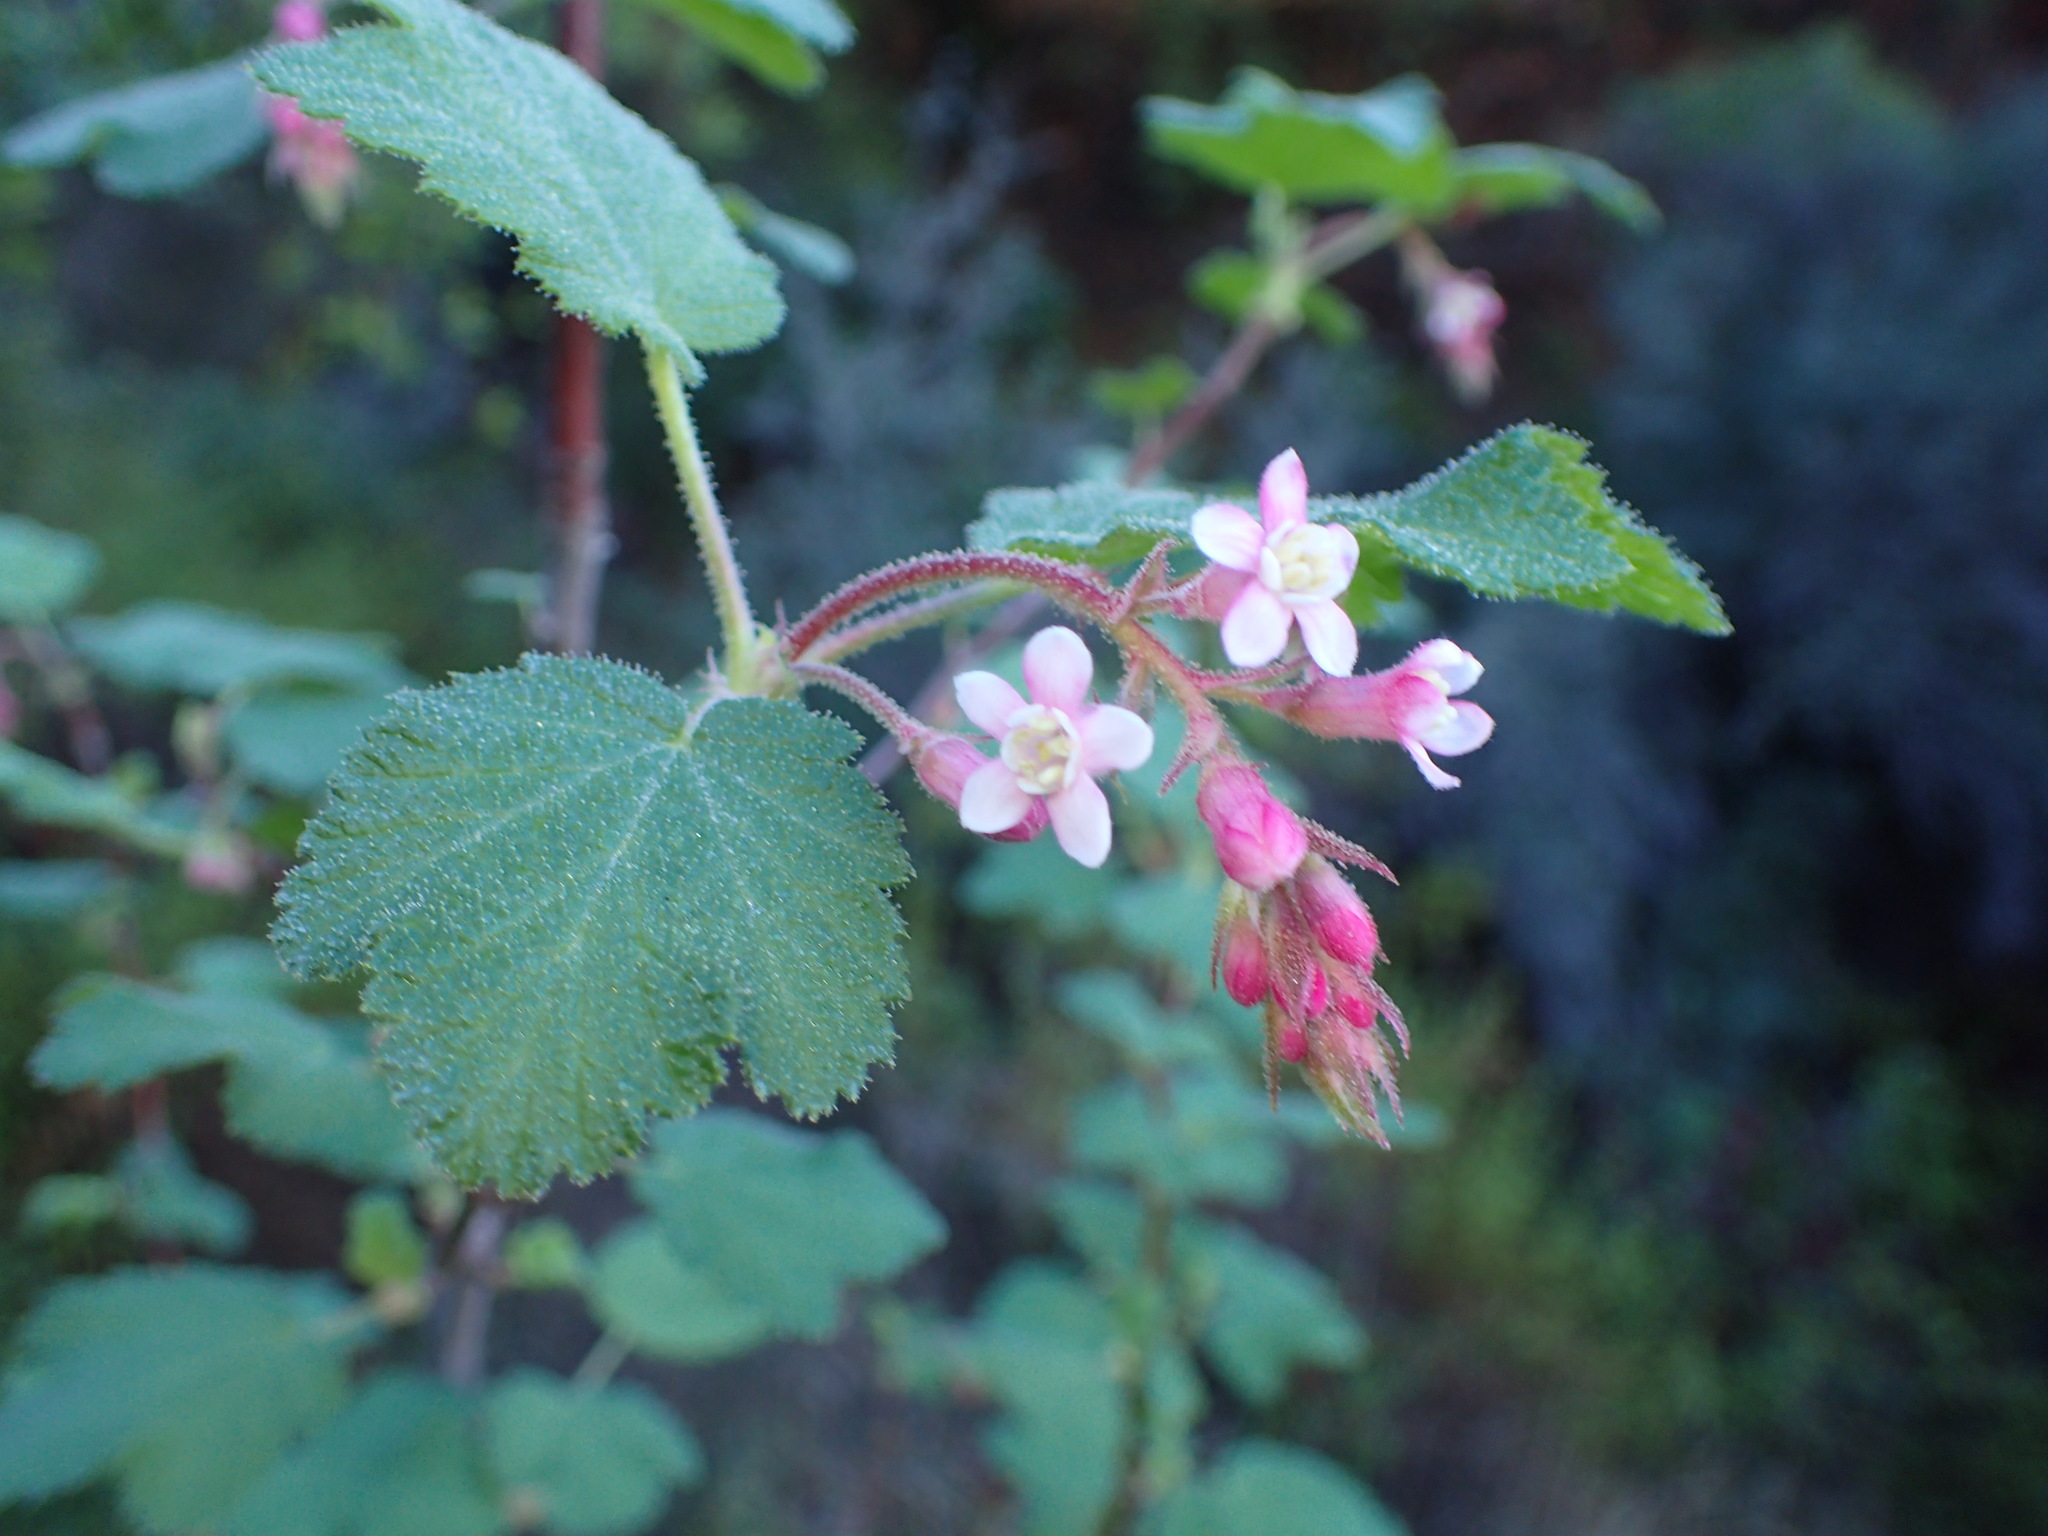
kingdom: Plantae
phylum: Tracheophyta
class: Magnoliopsida
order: Saxifragales
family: Grossulariaceae
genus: Ribes
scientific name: Ribes malvaceum
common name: Chaparral currant
